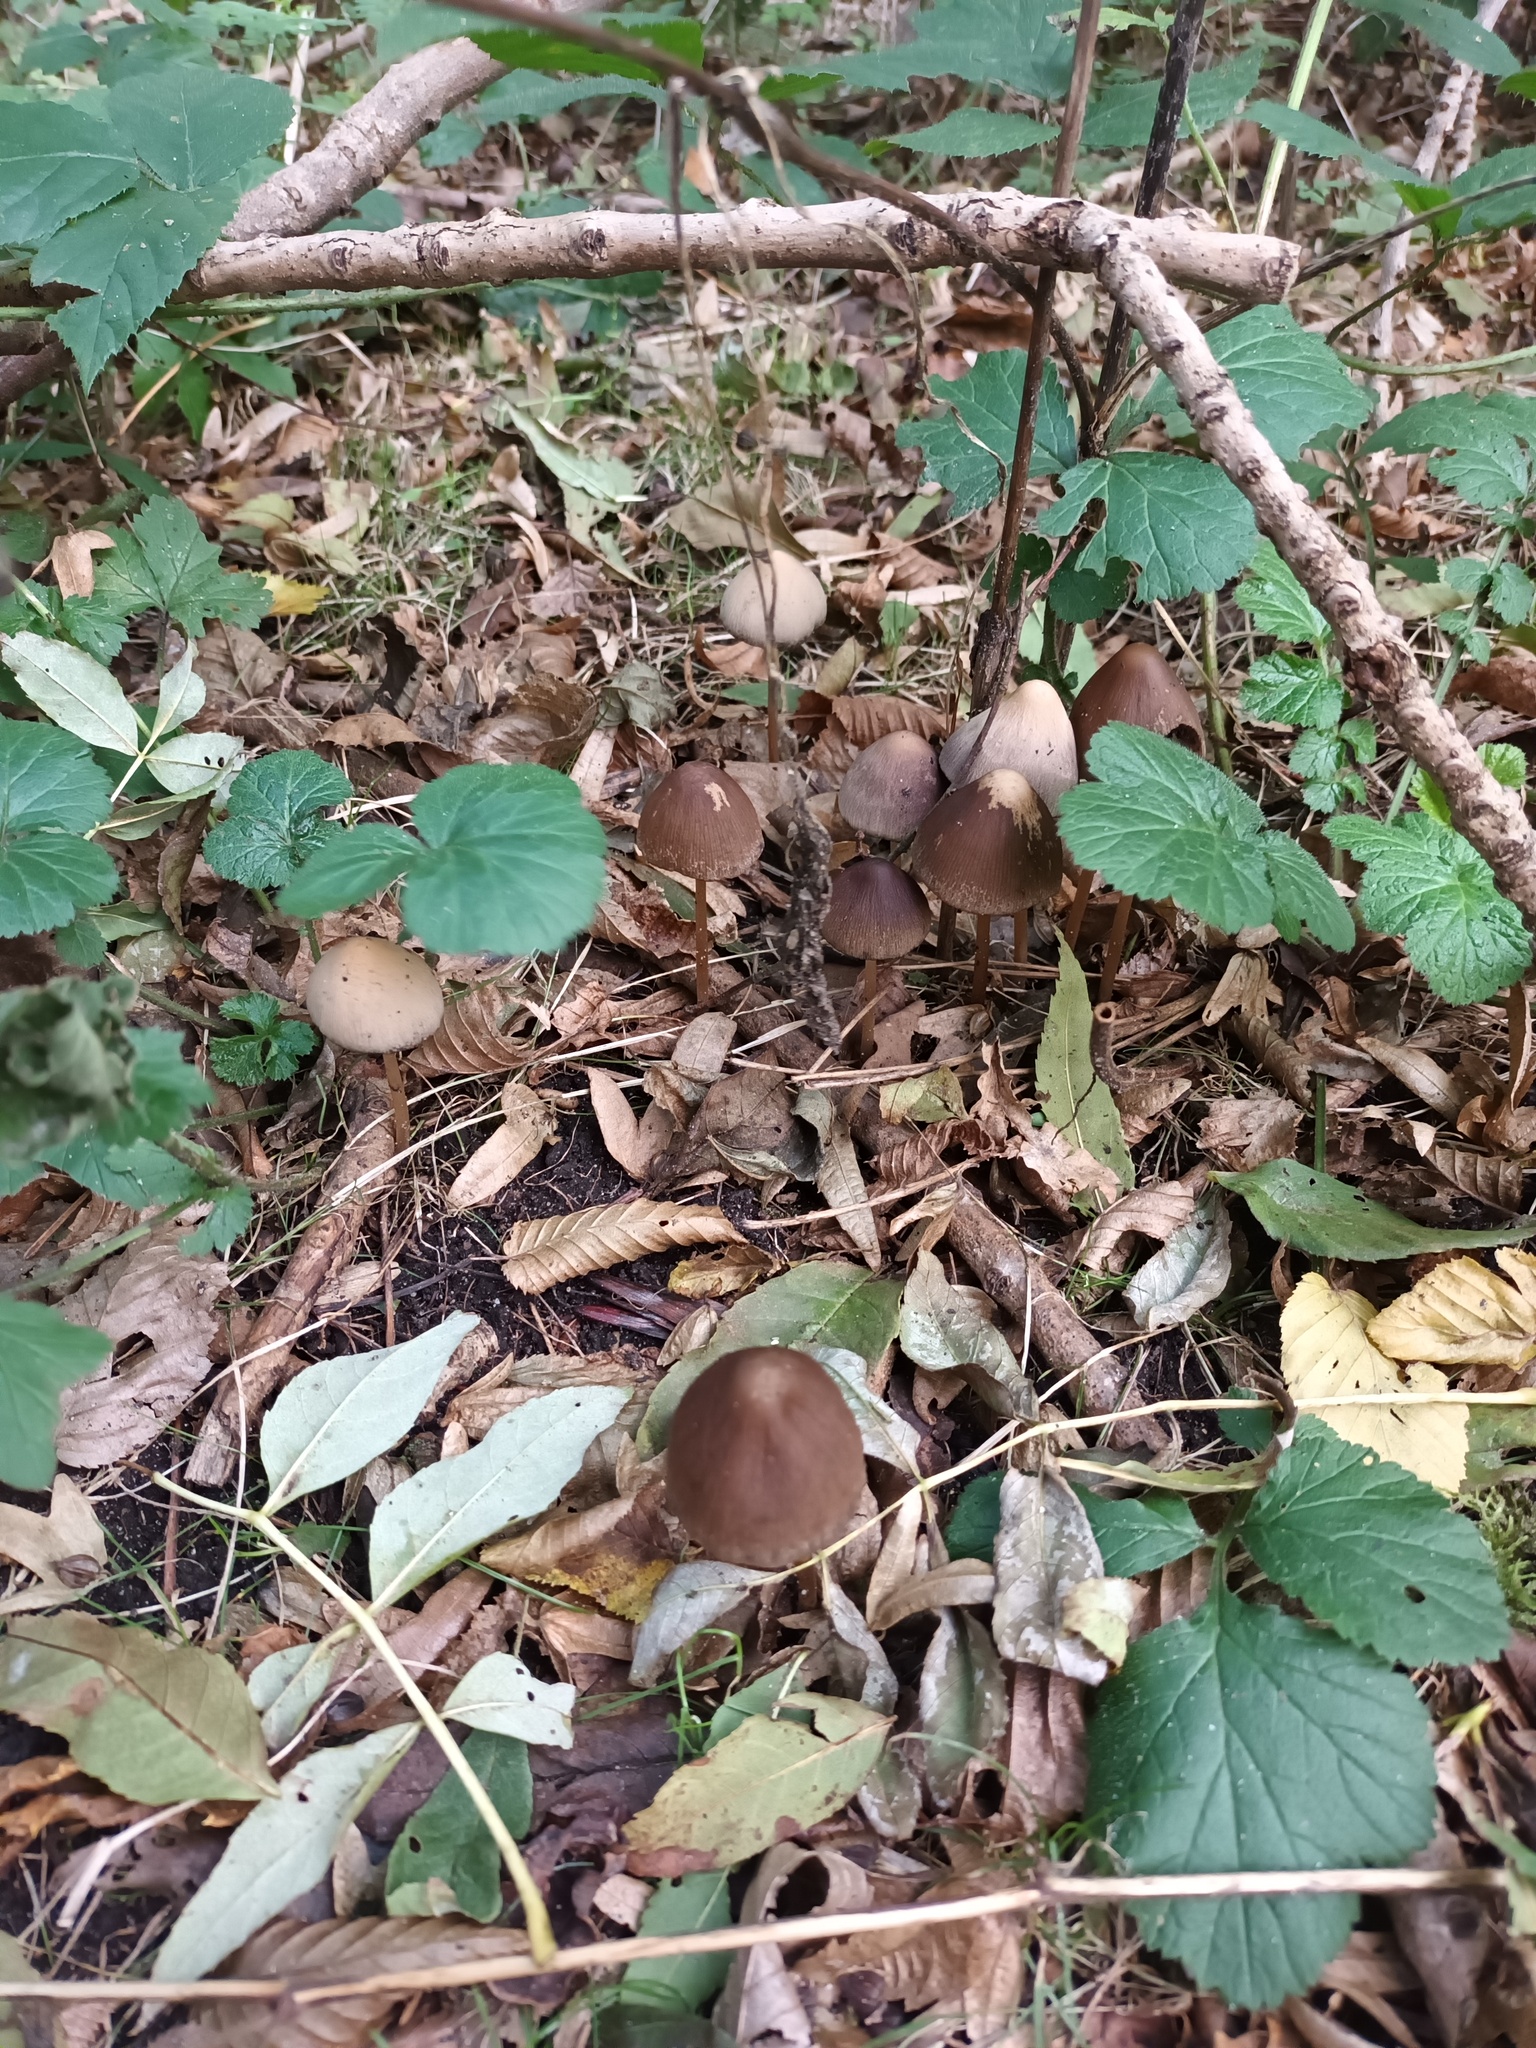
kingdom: Fungi
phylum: Basidiomycota
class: Agaricomycetes
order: Agaricales
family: Psathyrellaceae
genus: Parasola
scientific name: Parasola conopilea
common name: Conical brittlestem
